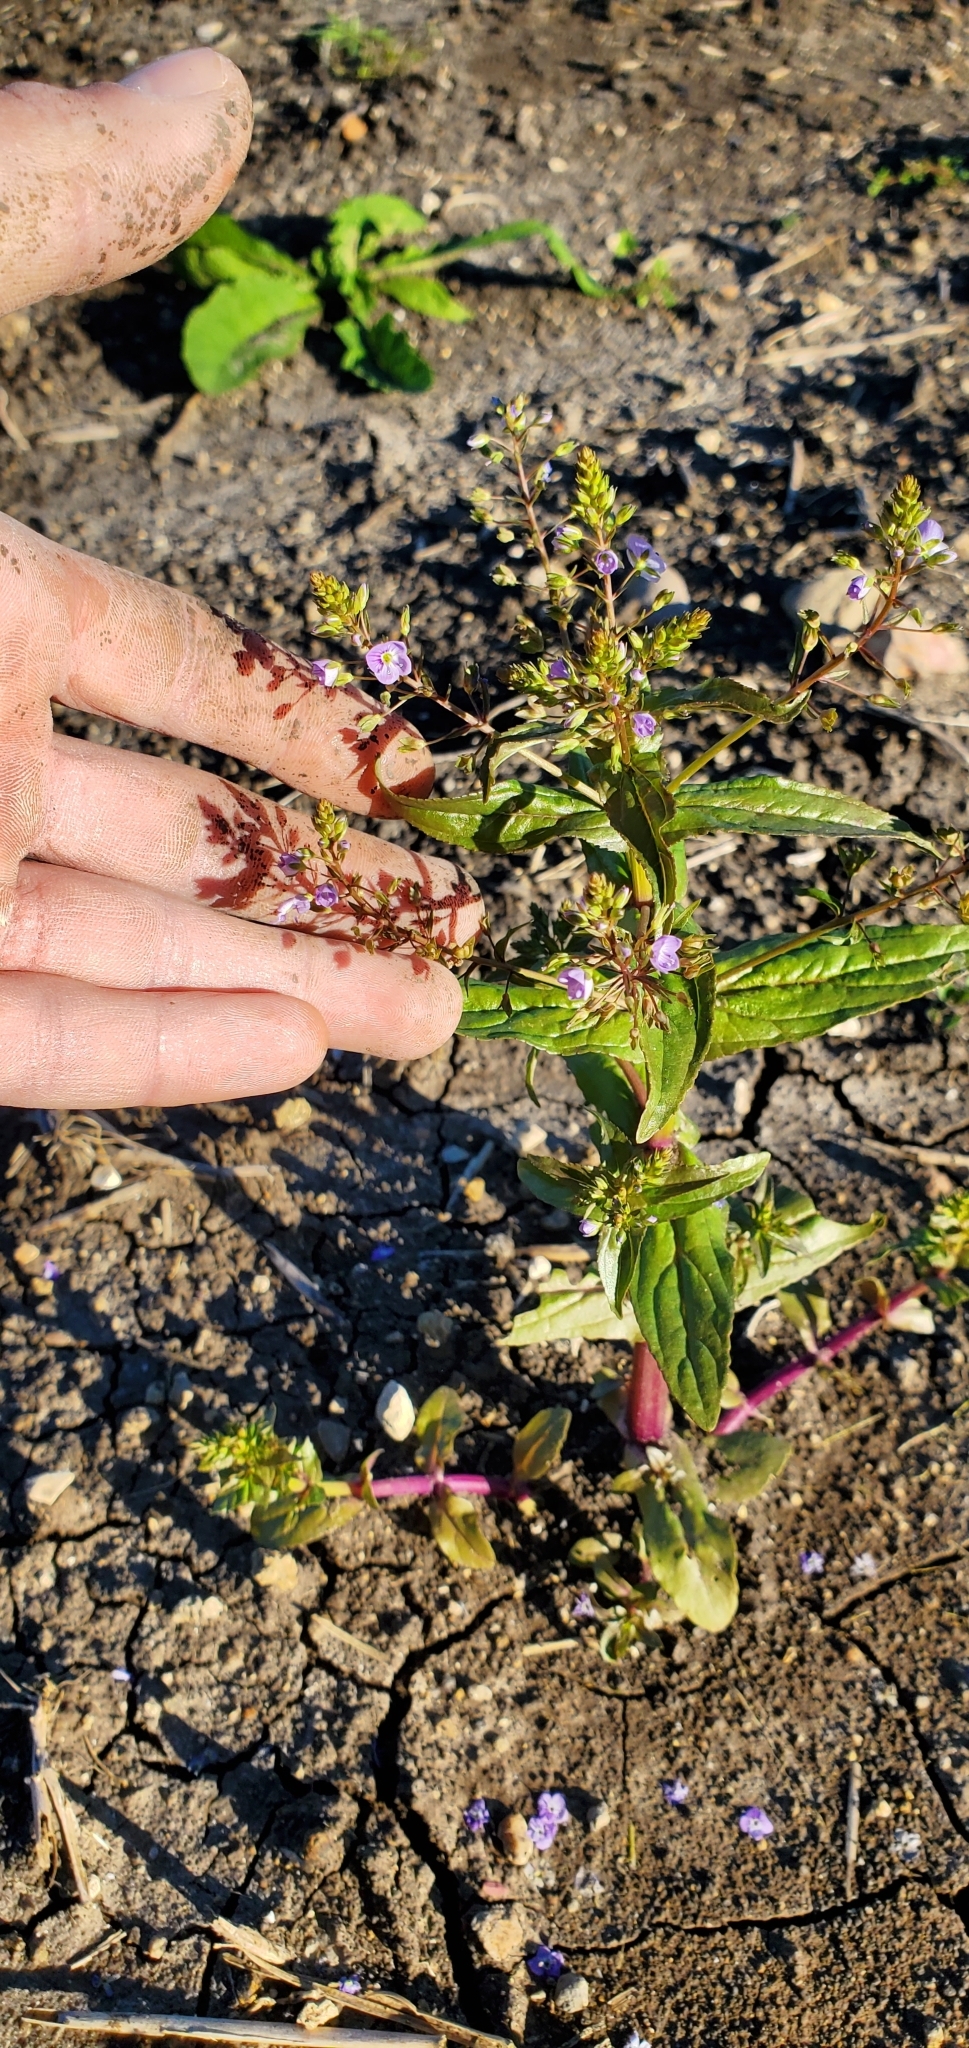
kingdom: Plantae
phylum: Tracheophyta
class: Magnoliopsida
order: Lamiales
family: Plantaginaceae
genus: Veronica
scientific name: Veronica anagallis-aquatica
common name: Water speedwell
